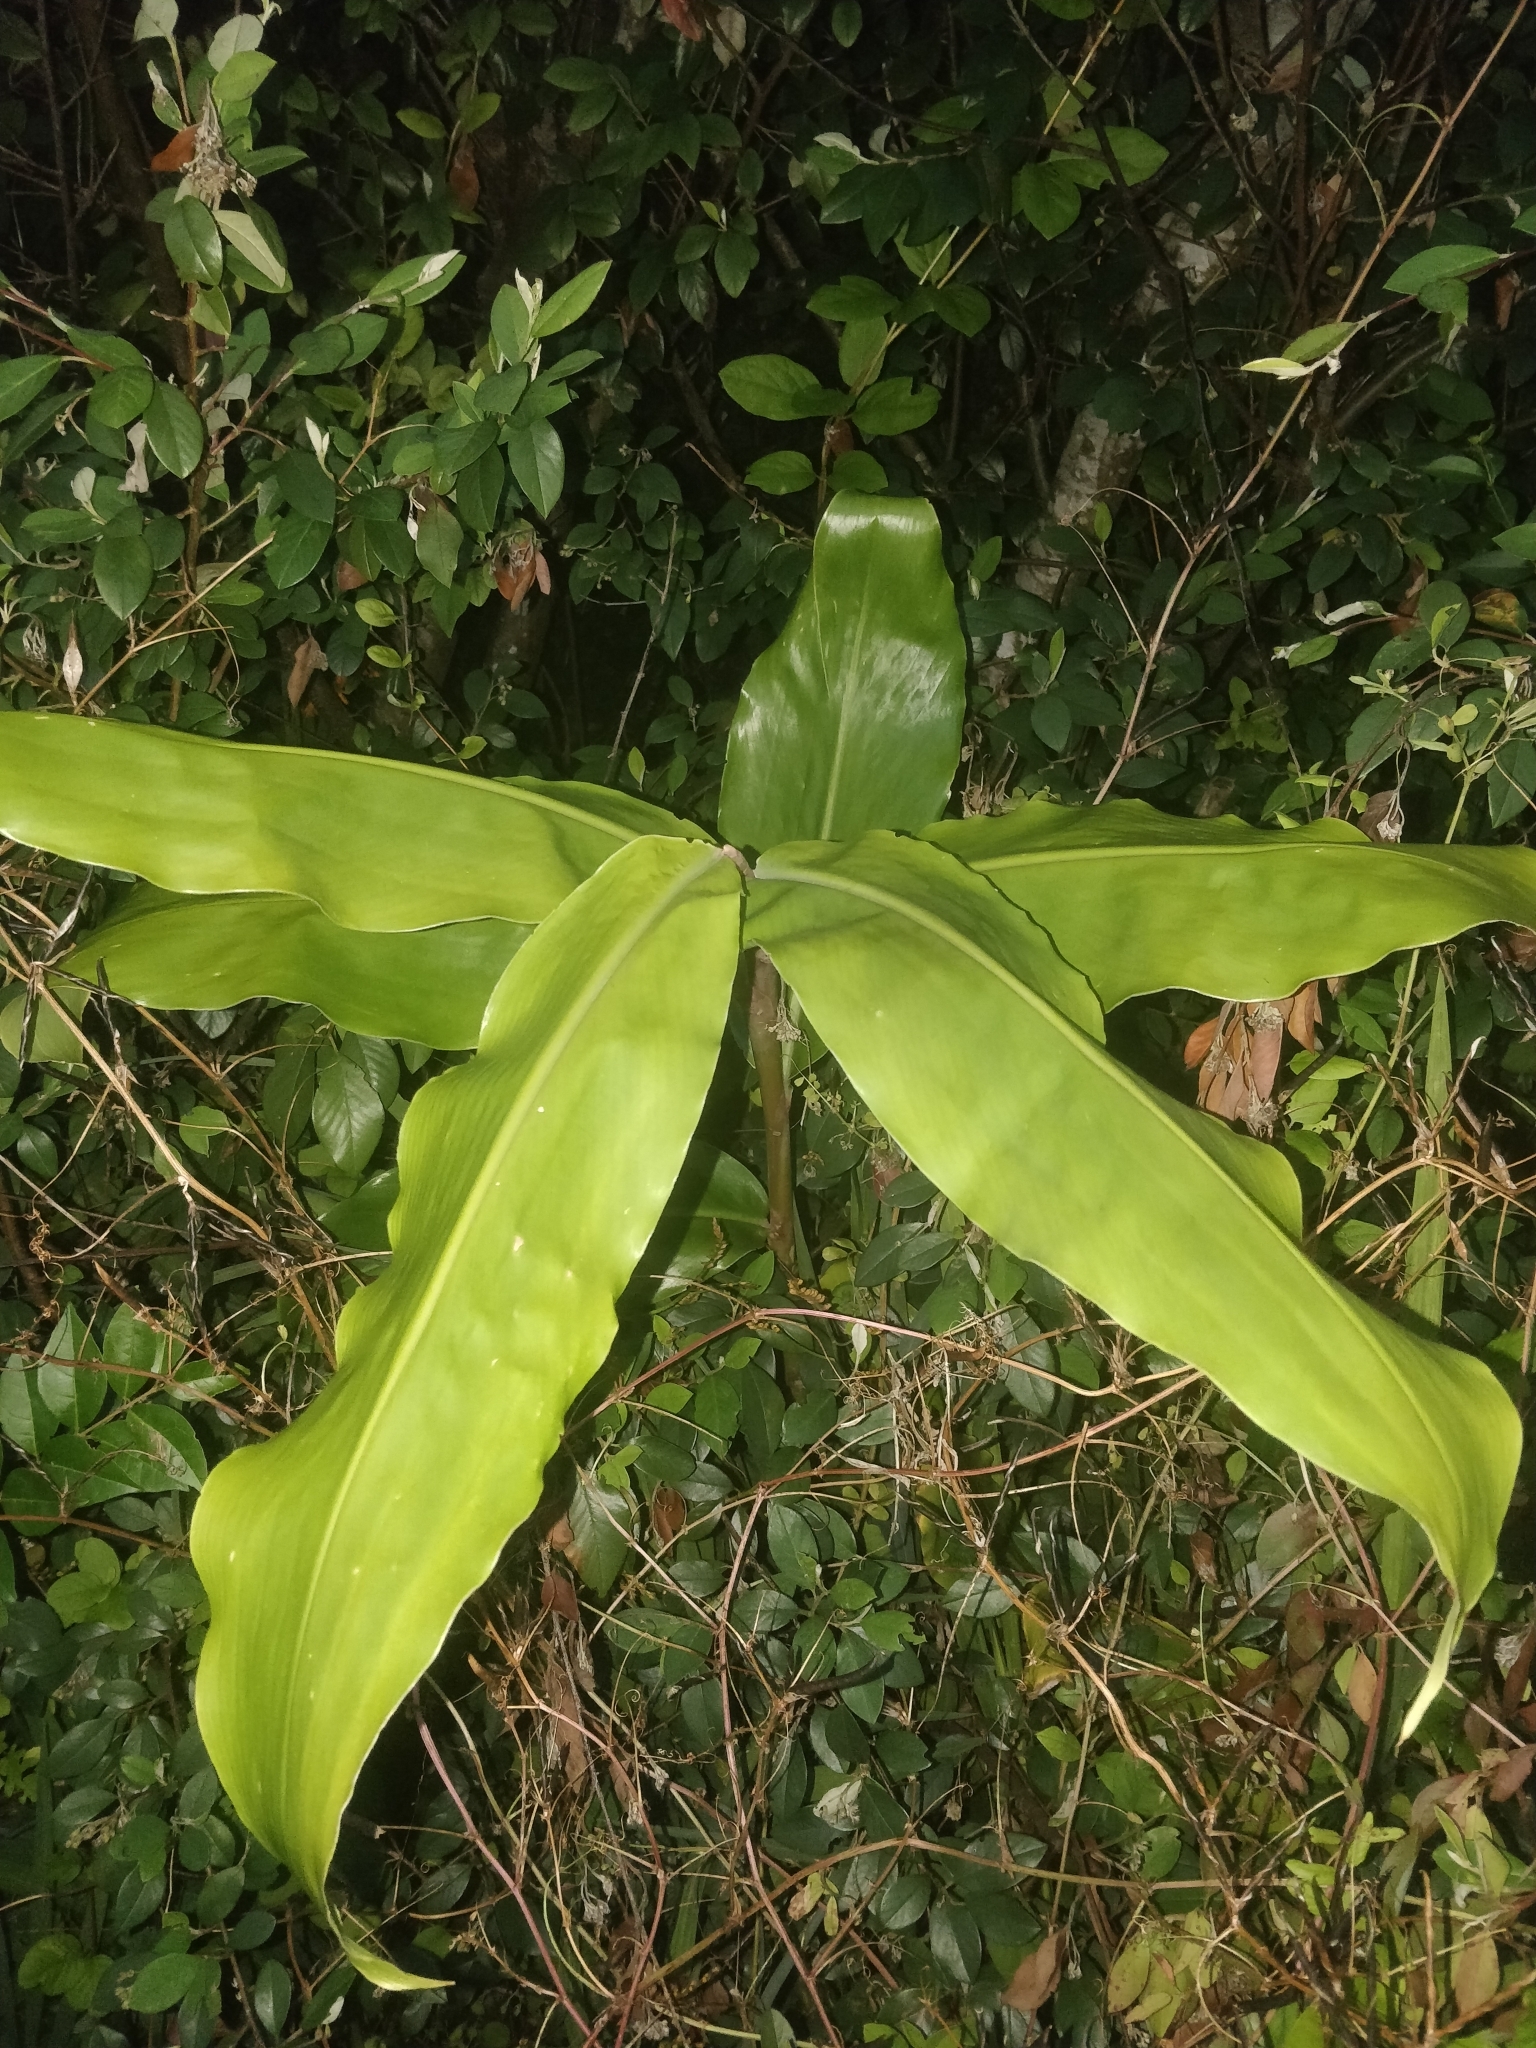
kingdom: Plantae
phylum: Tracheophyta
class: Liliopsida
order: Zingiberales
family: Zingiberaceae
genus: Hedychium
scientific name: Hedychium gardnerianum
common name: Himalayan ginger
